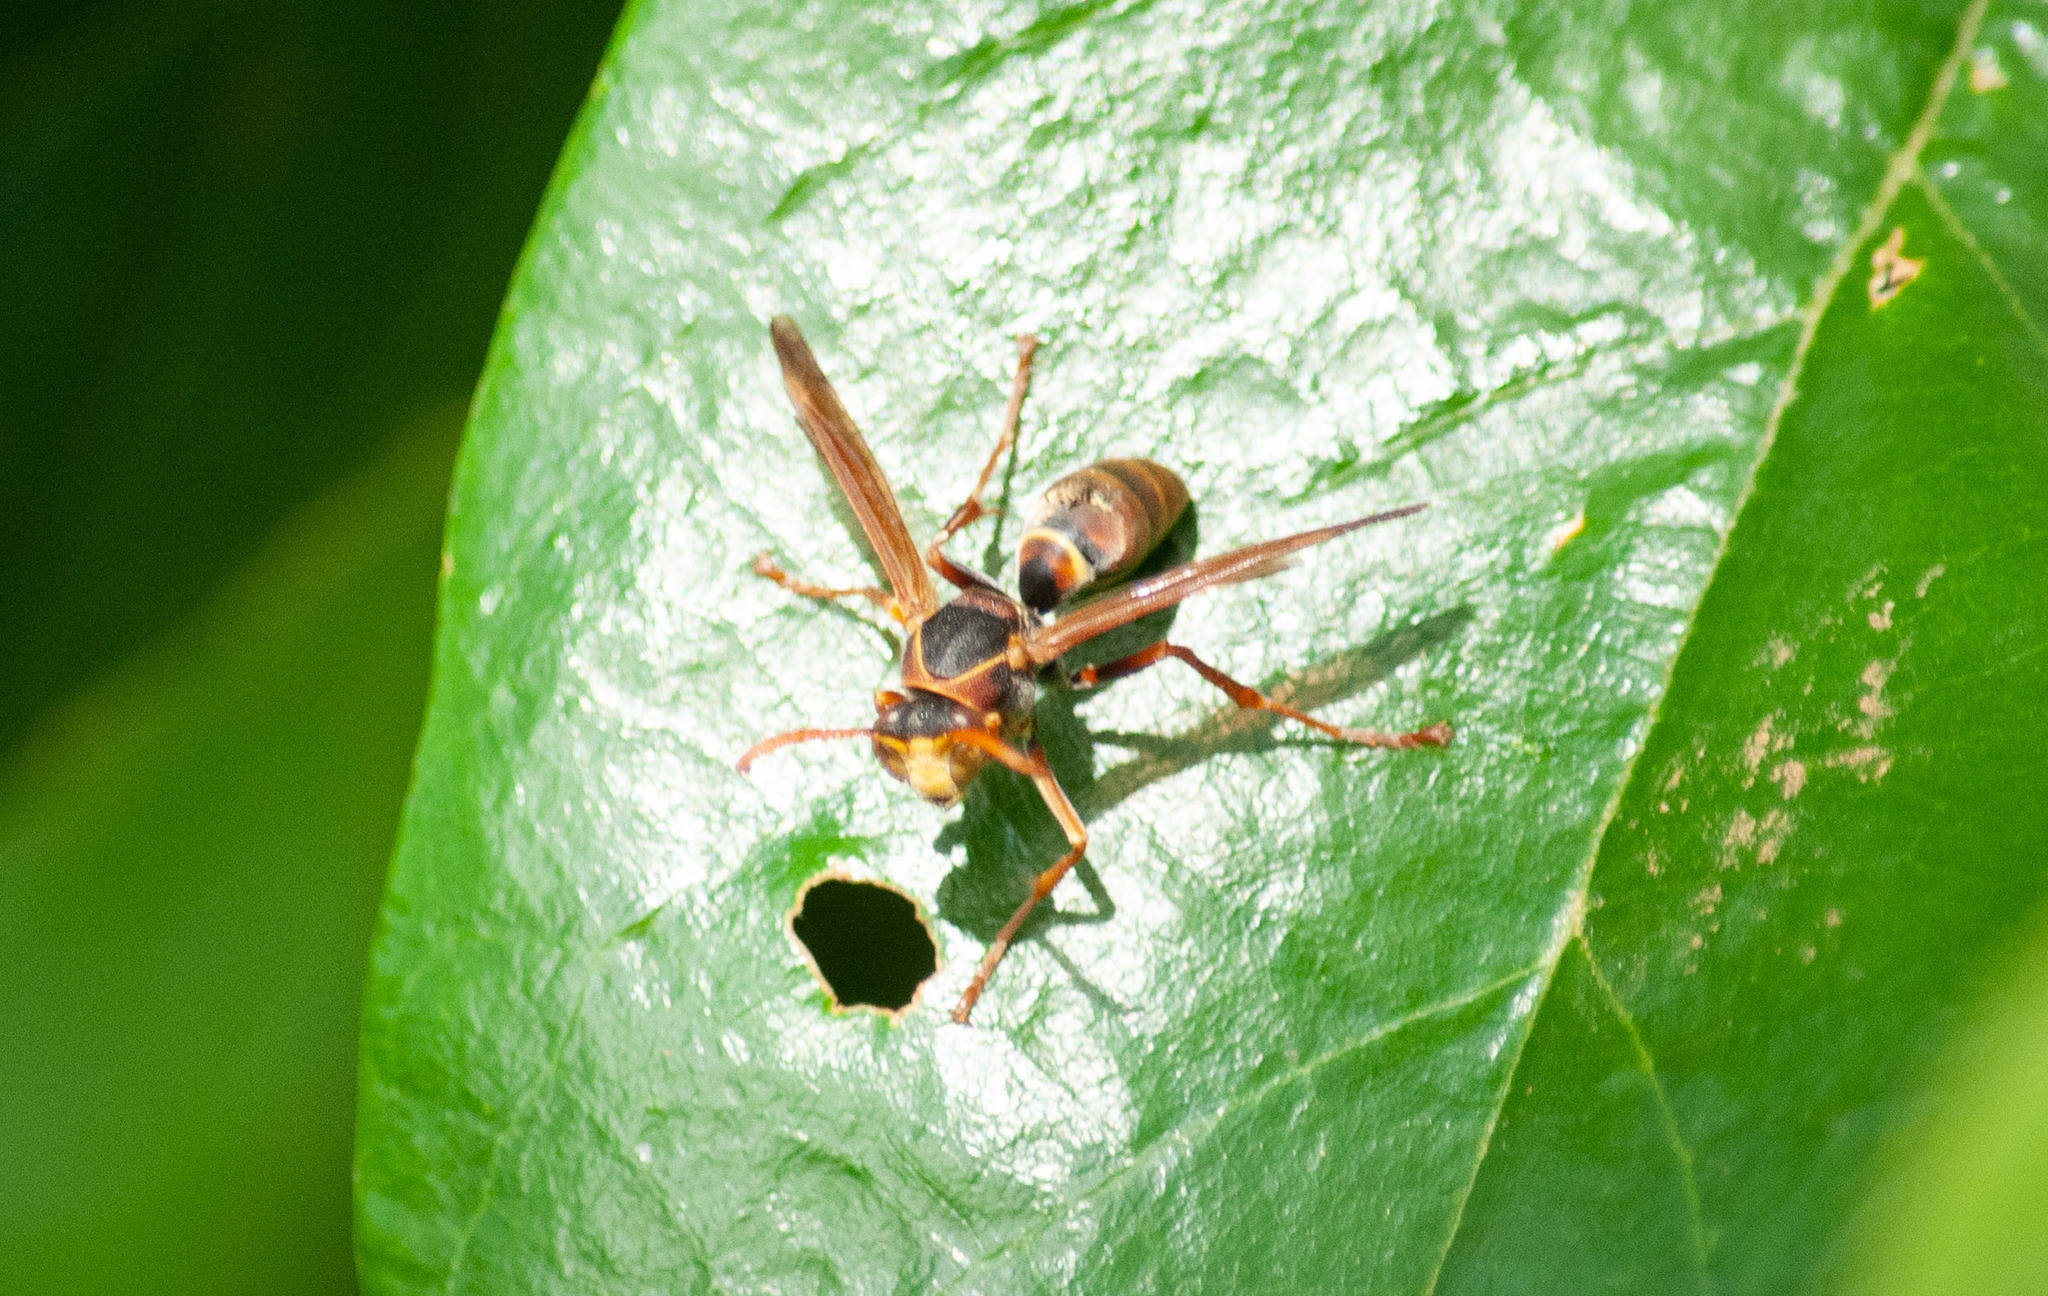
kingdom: Animalia
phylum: Arthropoda
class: Insecta
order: Hymenoptera
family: Eumenidae
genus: Polistes
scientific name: Polistes humilis
